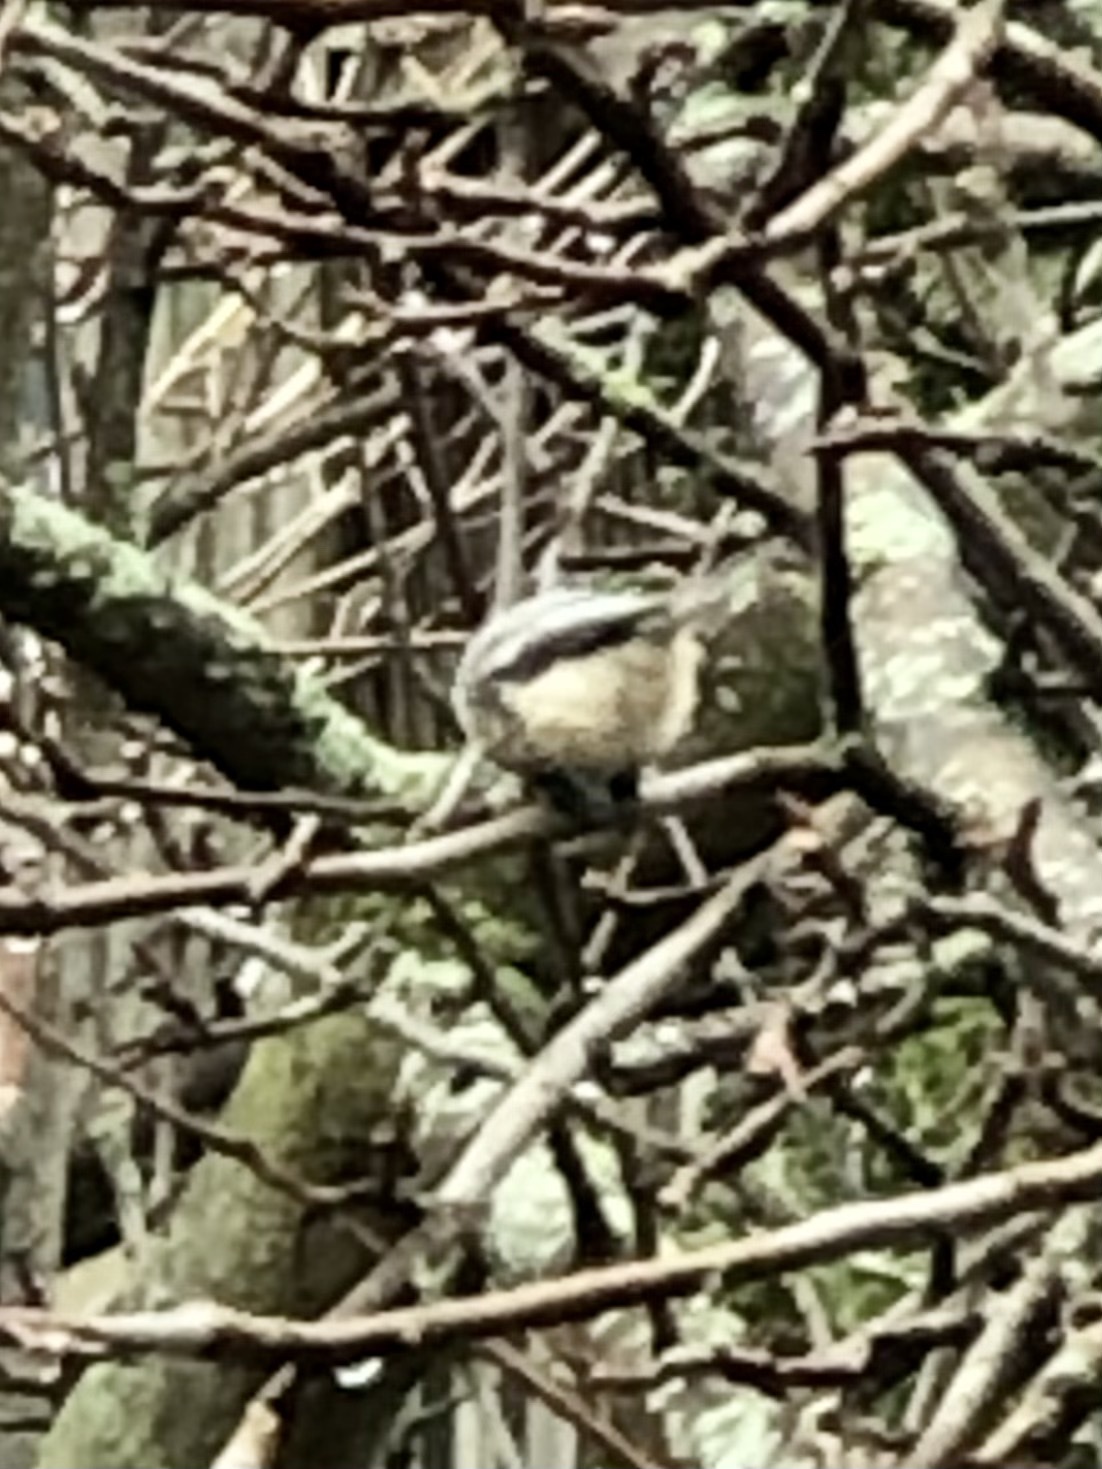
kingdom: Animalia
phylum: Chordata
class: Aves
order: Passeriformes
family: Paridae
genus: Poecile
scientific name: Poecile atricapillus
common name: Black-capped chickadee
